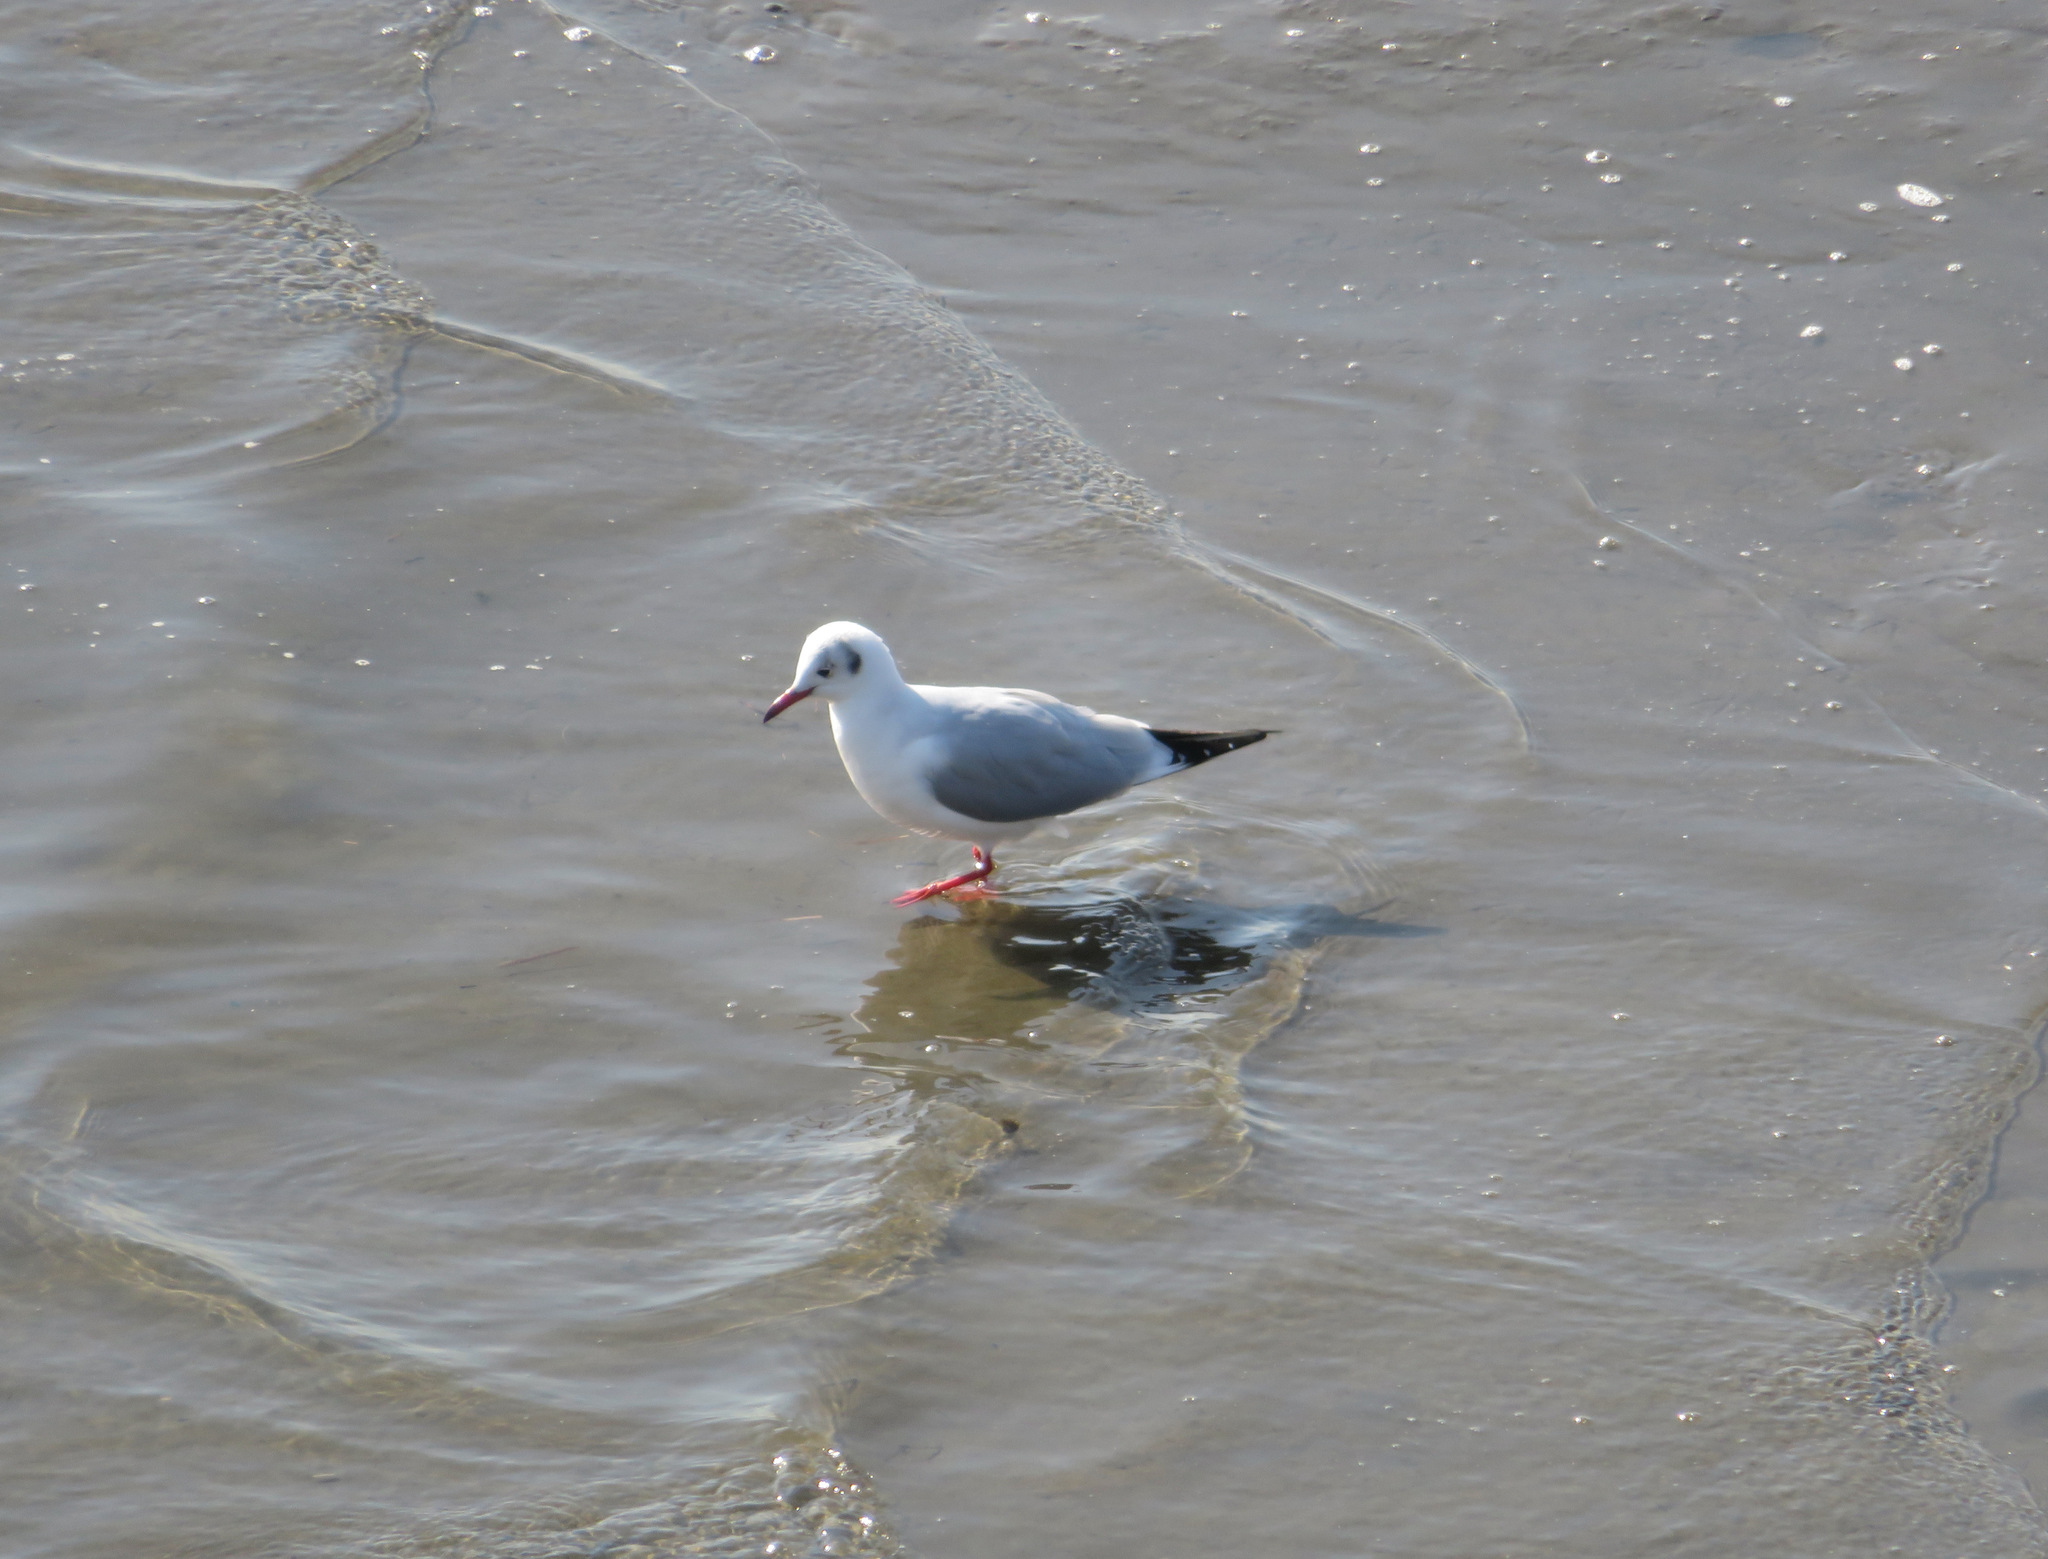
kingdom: Animalia
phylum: Chordata
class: Aves
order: Charadriiformes
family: Laridae
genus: Chroicocephalus
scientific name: Chroicocephalus ridibundus
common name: Black-headed gull
